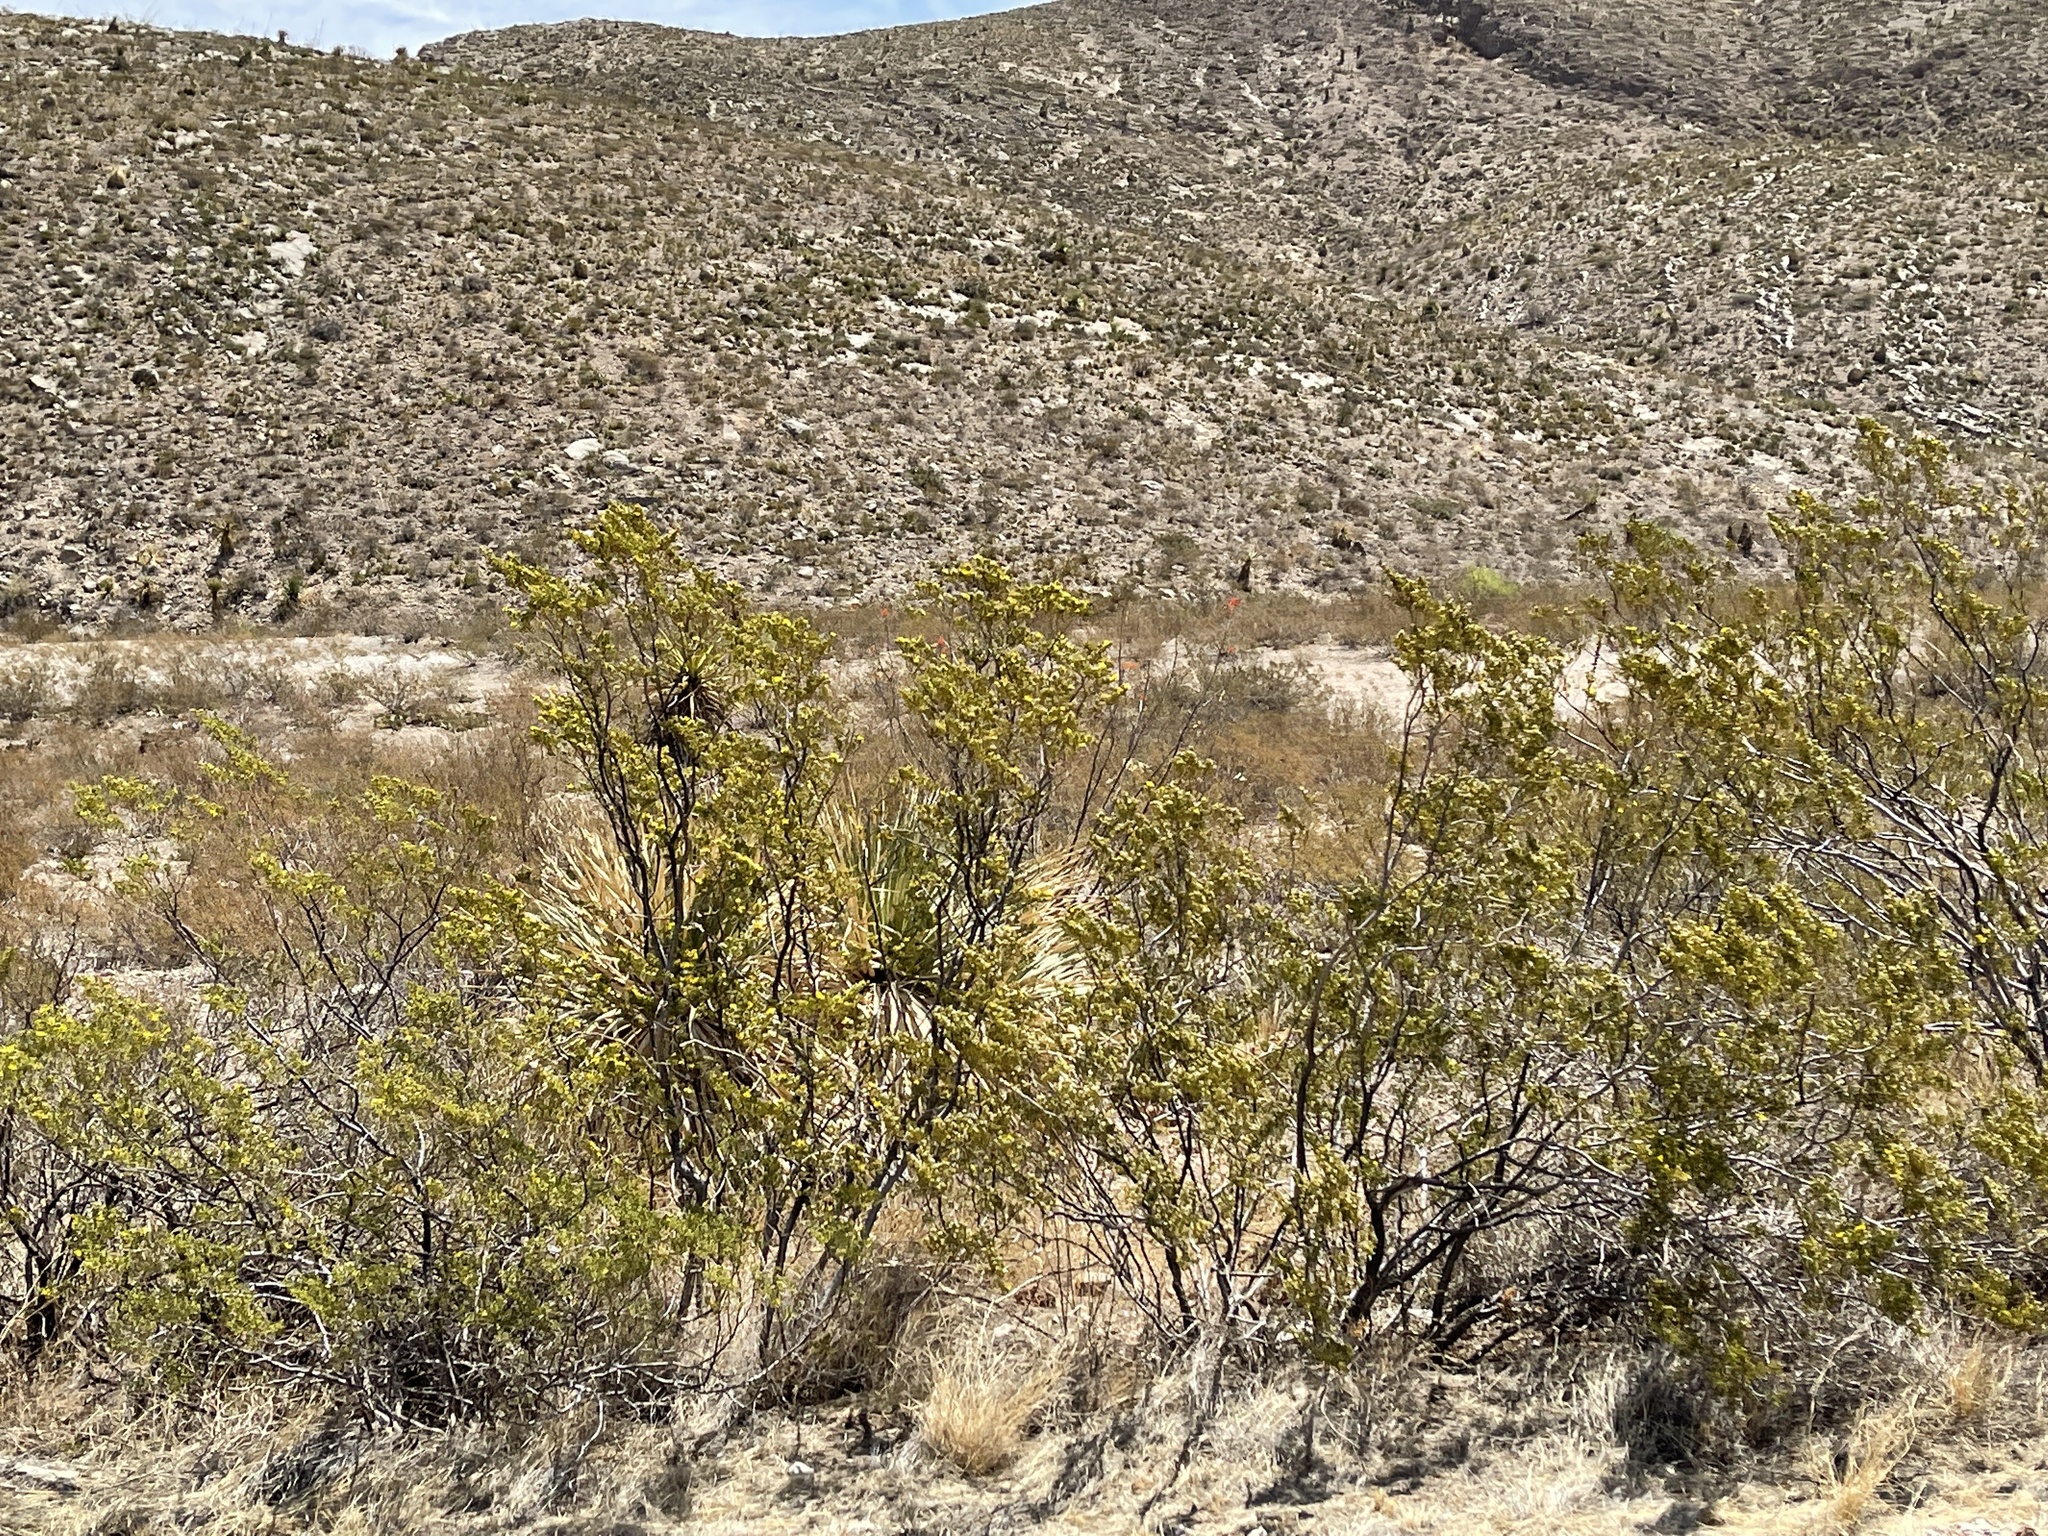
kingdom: Plantae
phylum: Tracheophyta
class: Magnoliopsida
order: Zygophyllales
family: Zygophyllaceae
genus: Larrea
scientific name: Larrea tridentata
